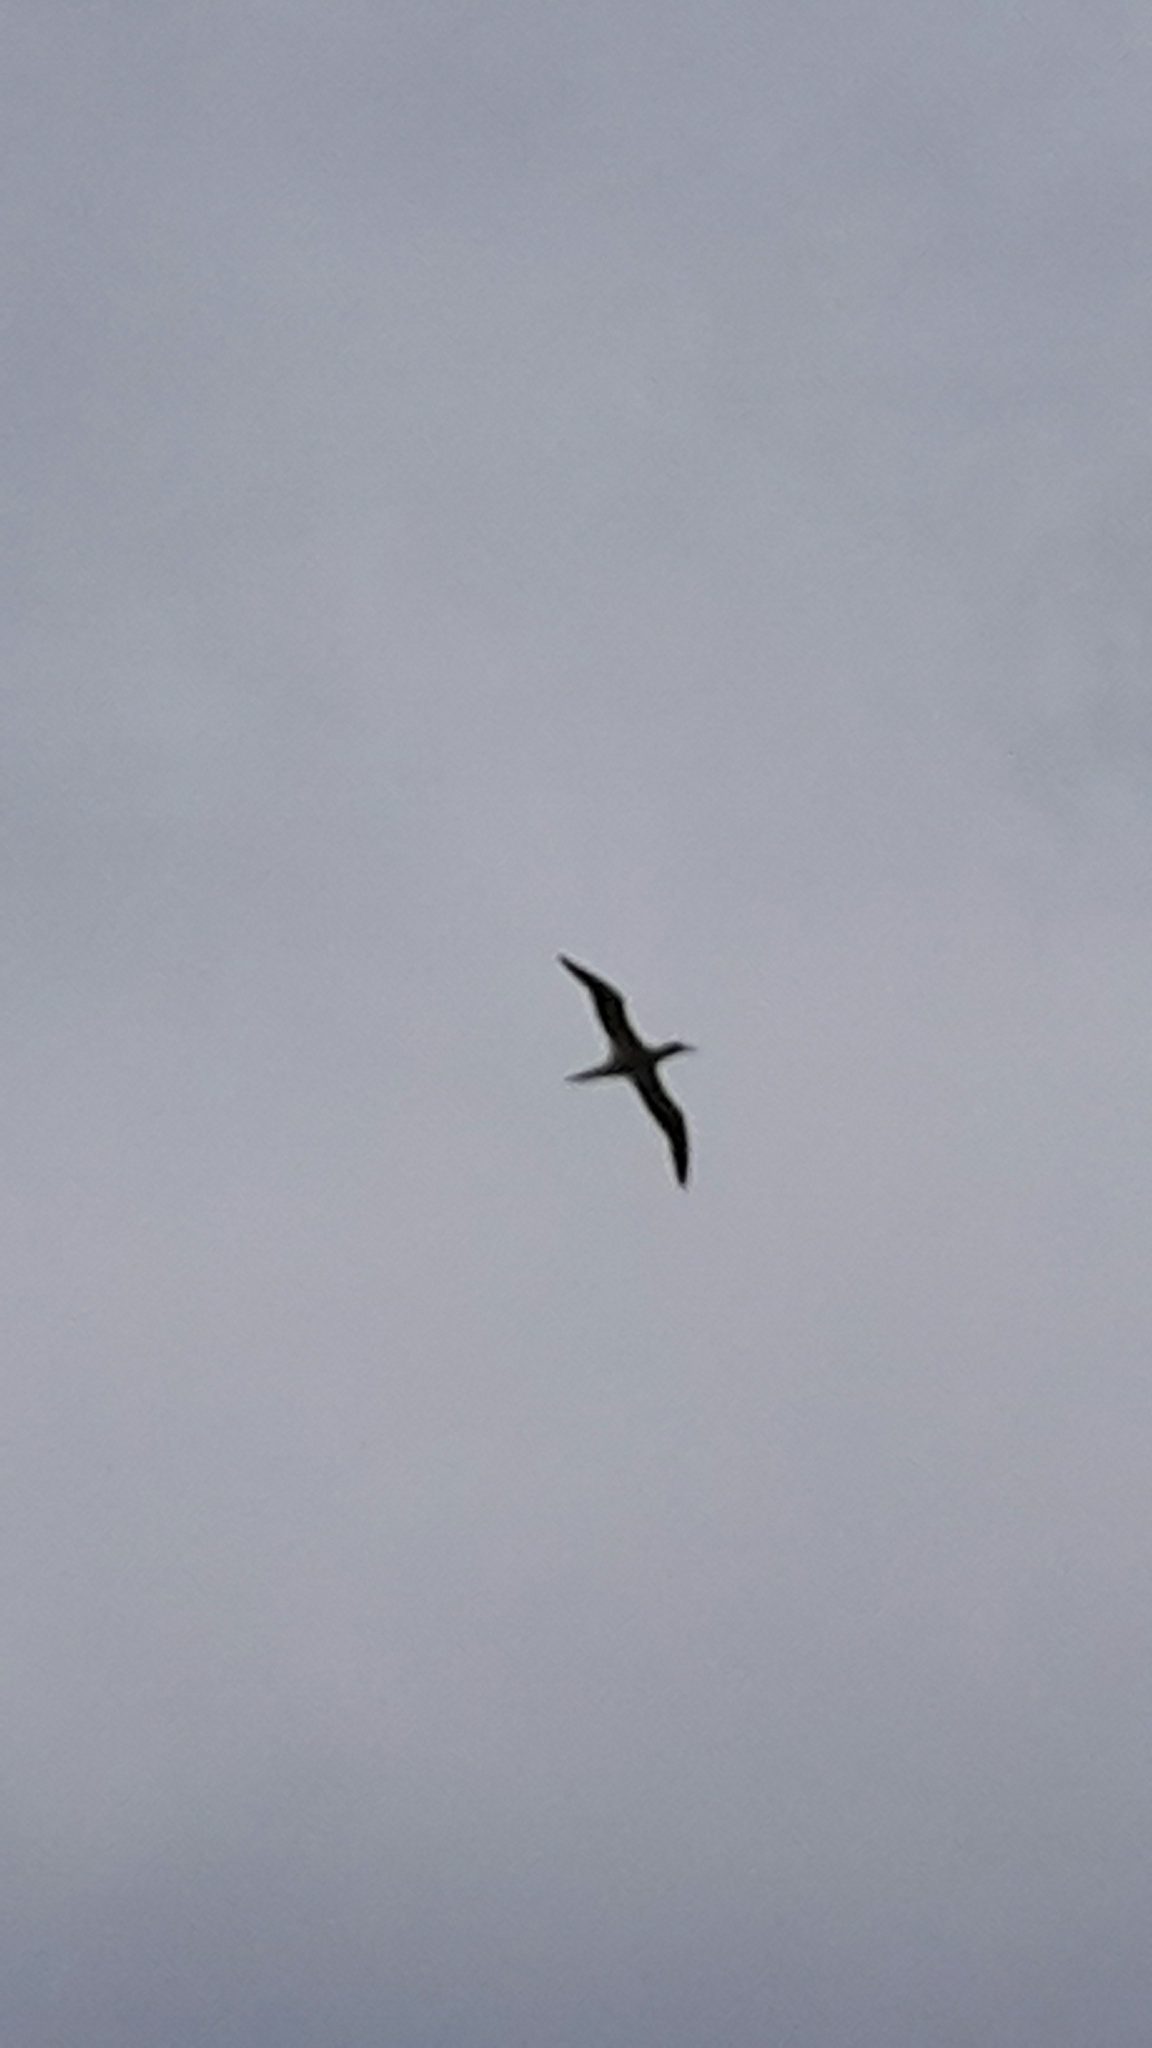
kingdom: Animalia
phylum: Chordata
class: Aves
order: Suliformes
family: Sulidae
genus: Morus
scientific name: Morus serrator
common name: Australasian gannet
